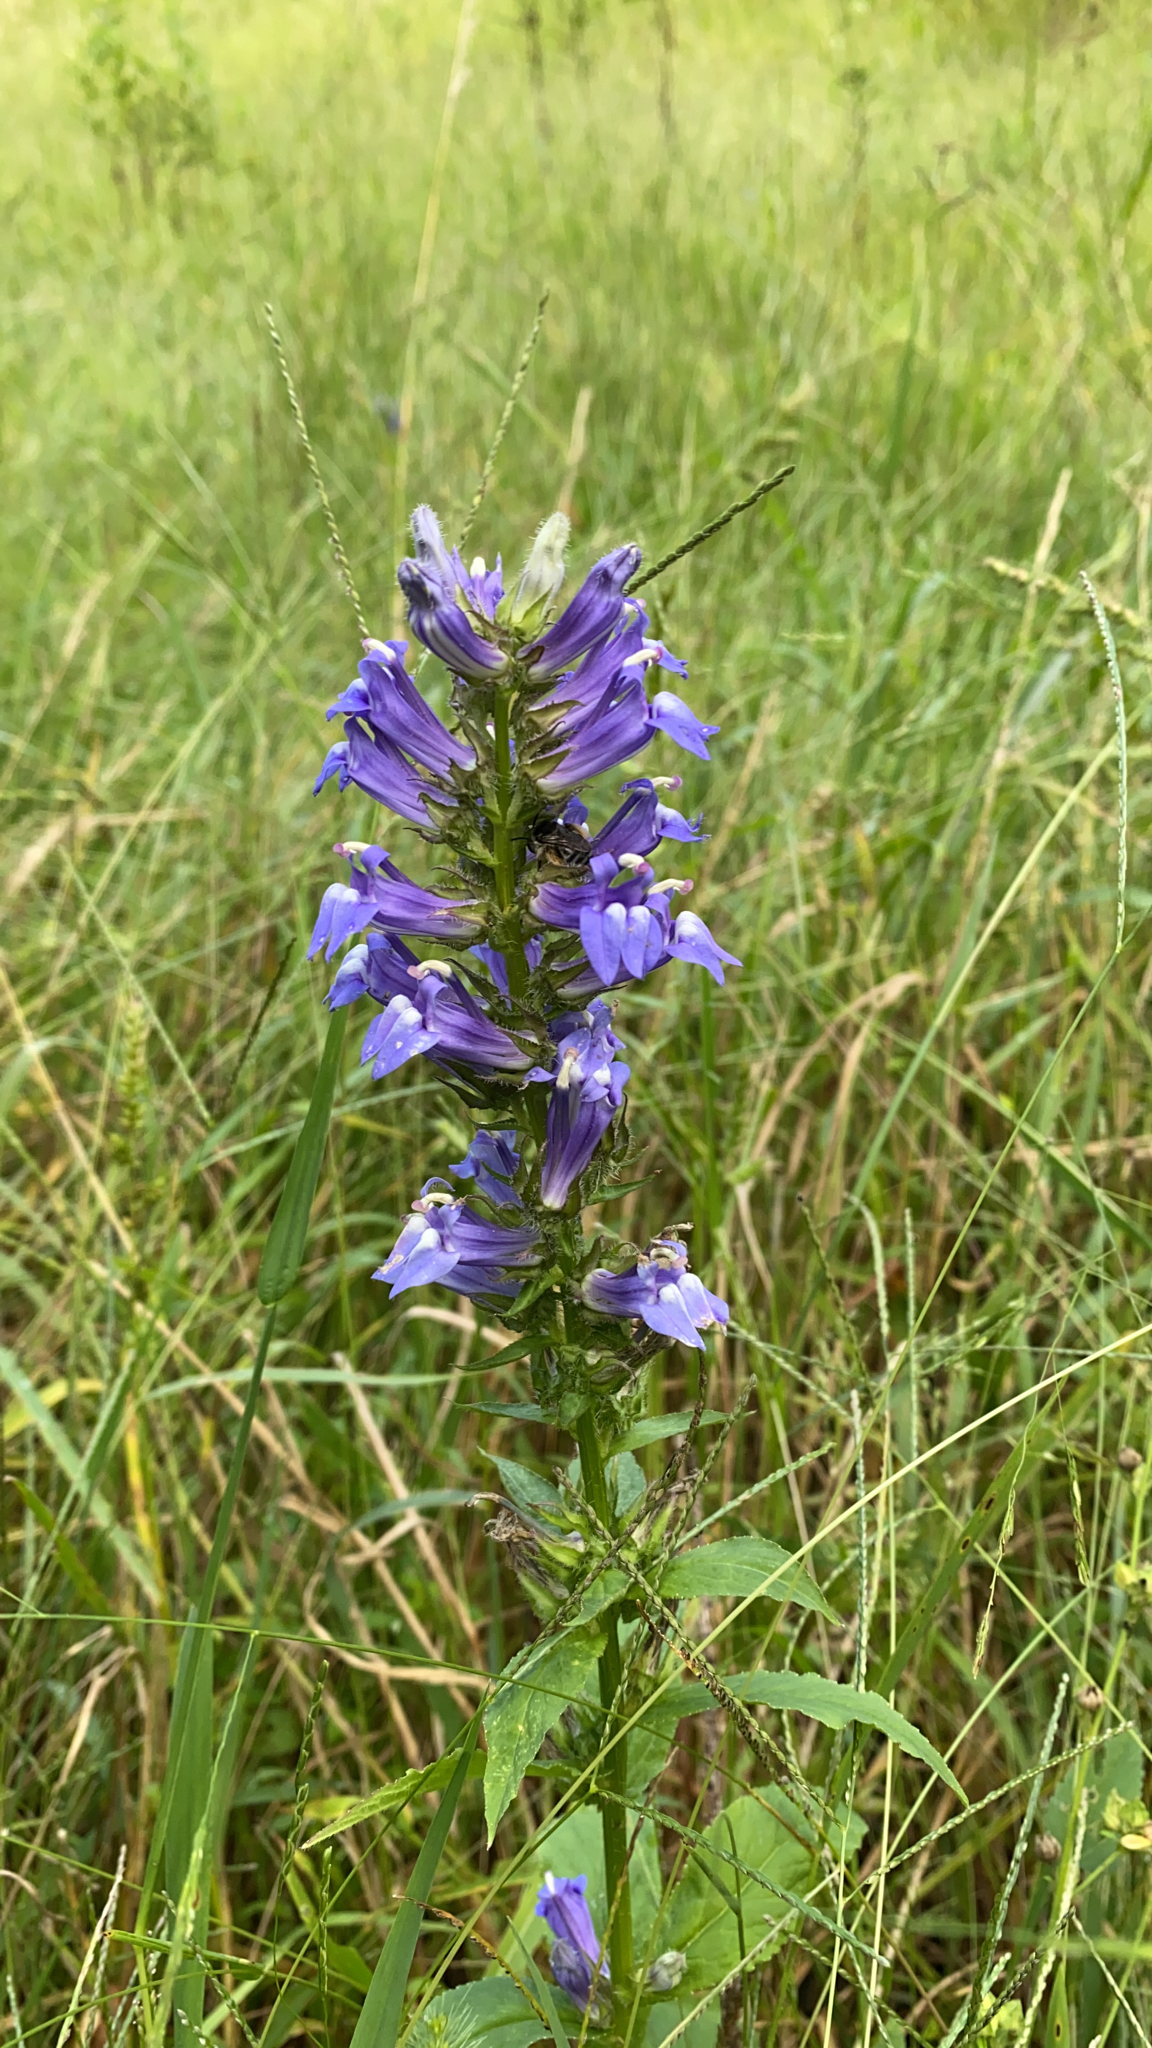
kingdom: Plantae
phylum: Tracheophyta
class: Magnoliopsida
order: Asterales
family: Campanulaceae
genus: Lobelia
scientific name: Lobelia siphilitica
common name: Great lobelia
